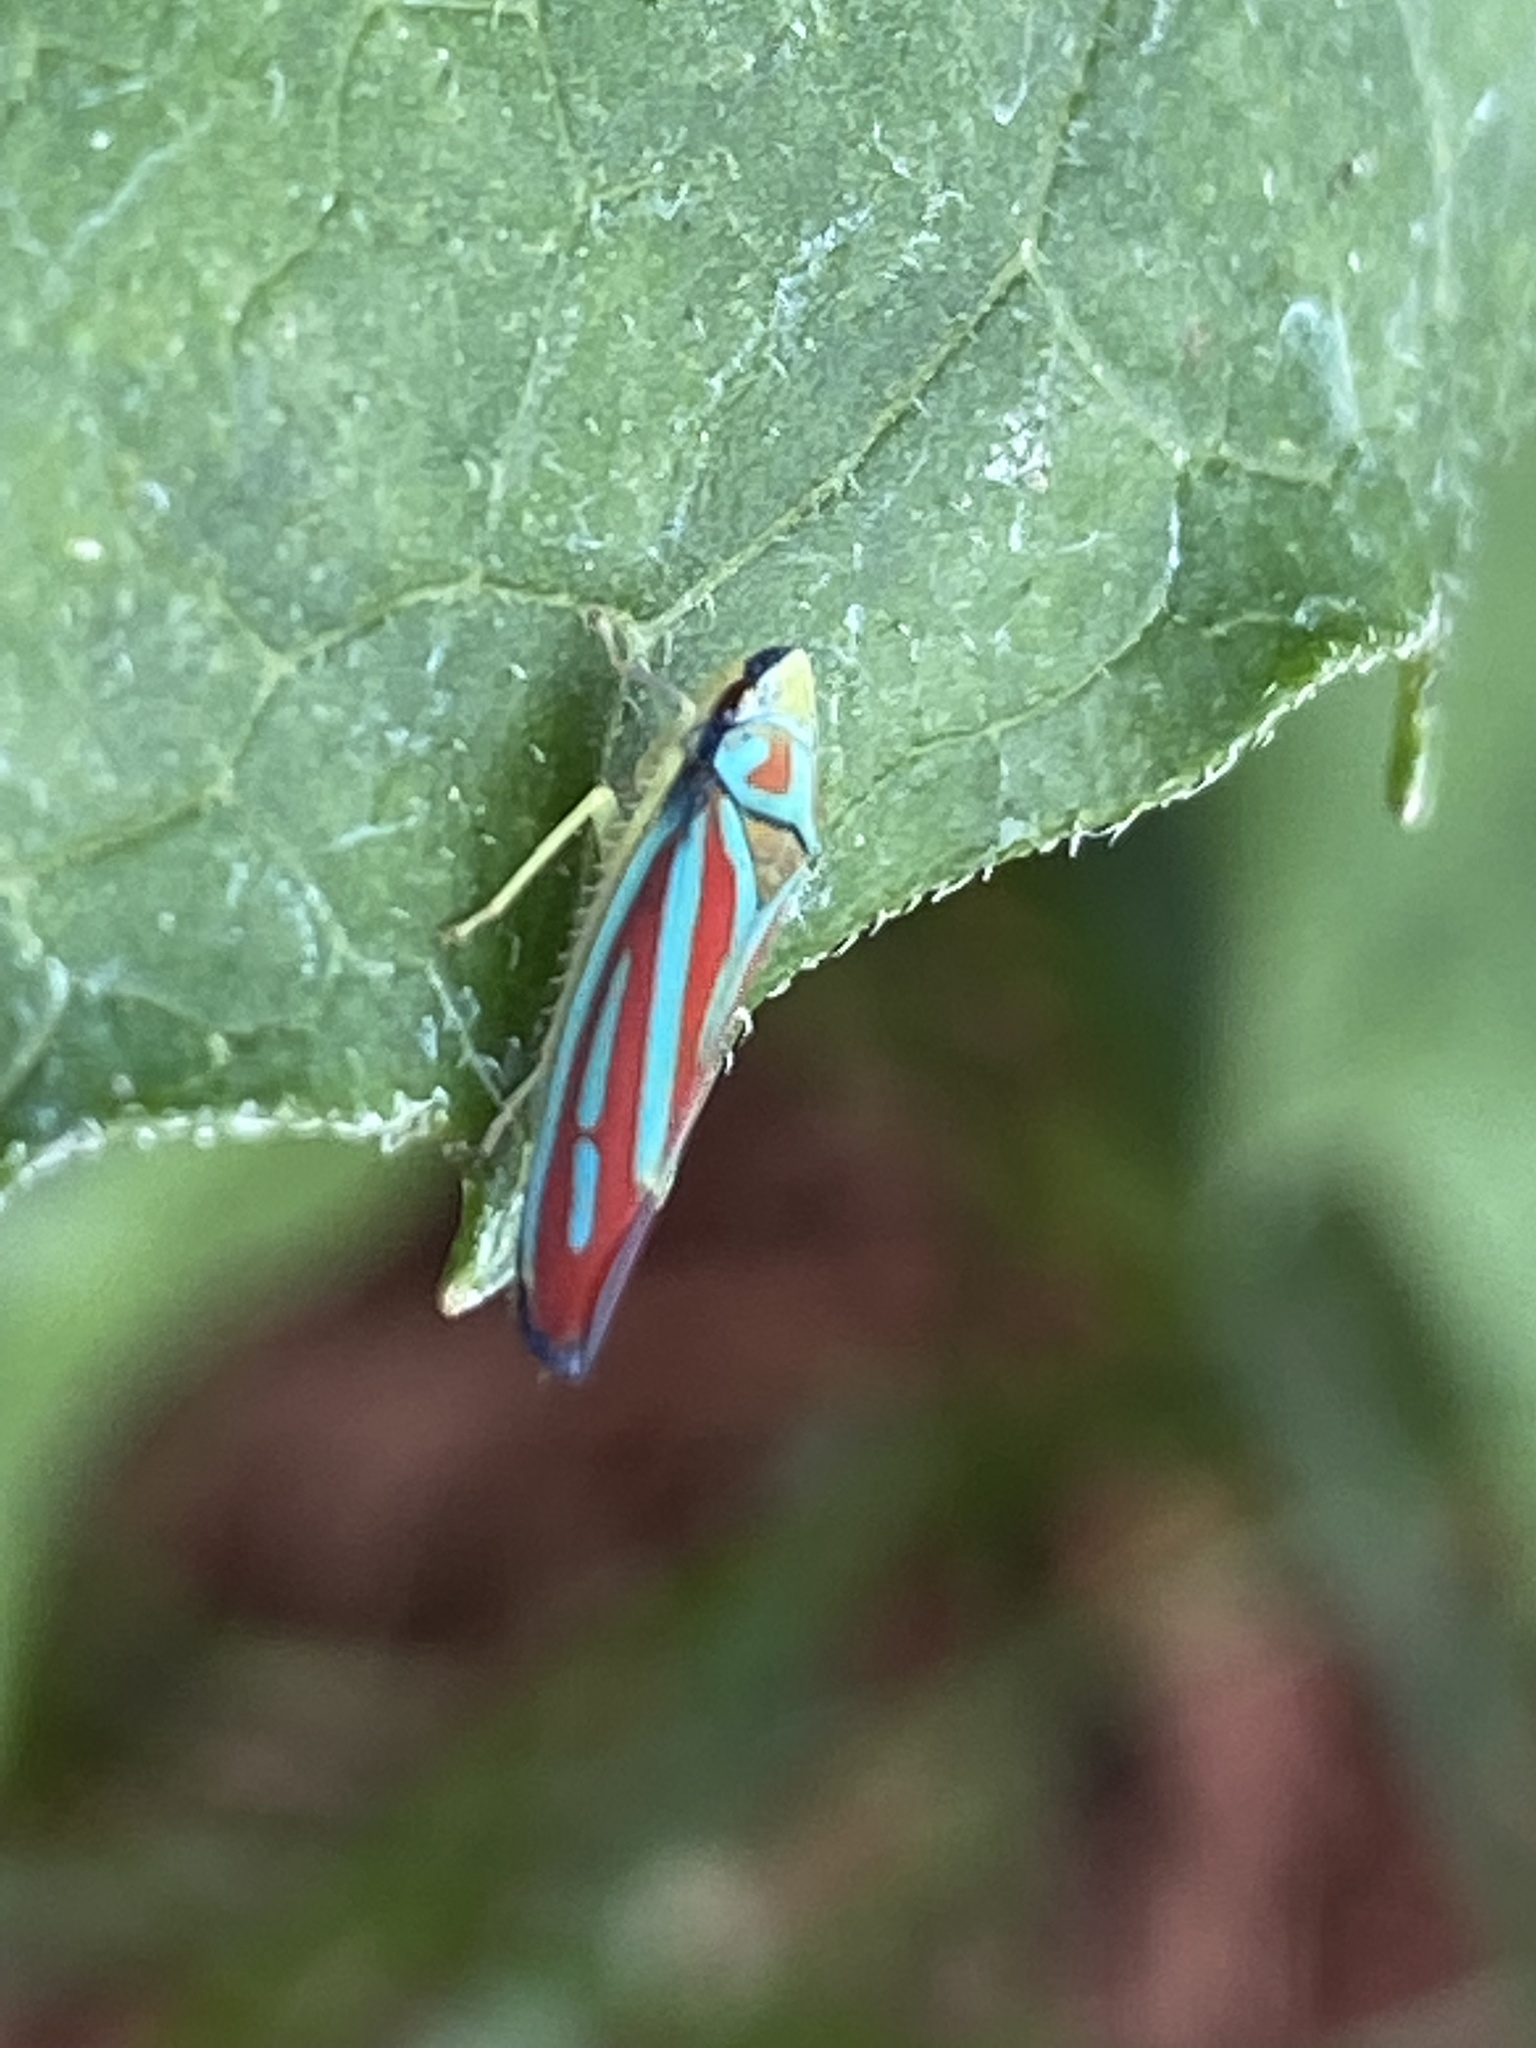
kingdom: Animalia
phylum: Arthropoda
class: Insecta
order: Hemiptera
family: Cicadellidae
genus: Graphocephala
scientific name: Graphocephala coccinea
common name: Candy-striped leafhopper
